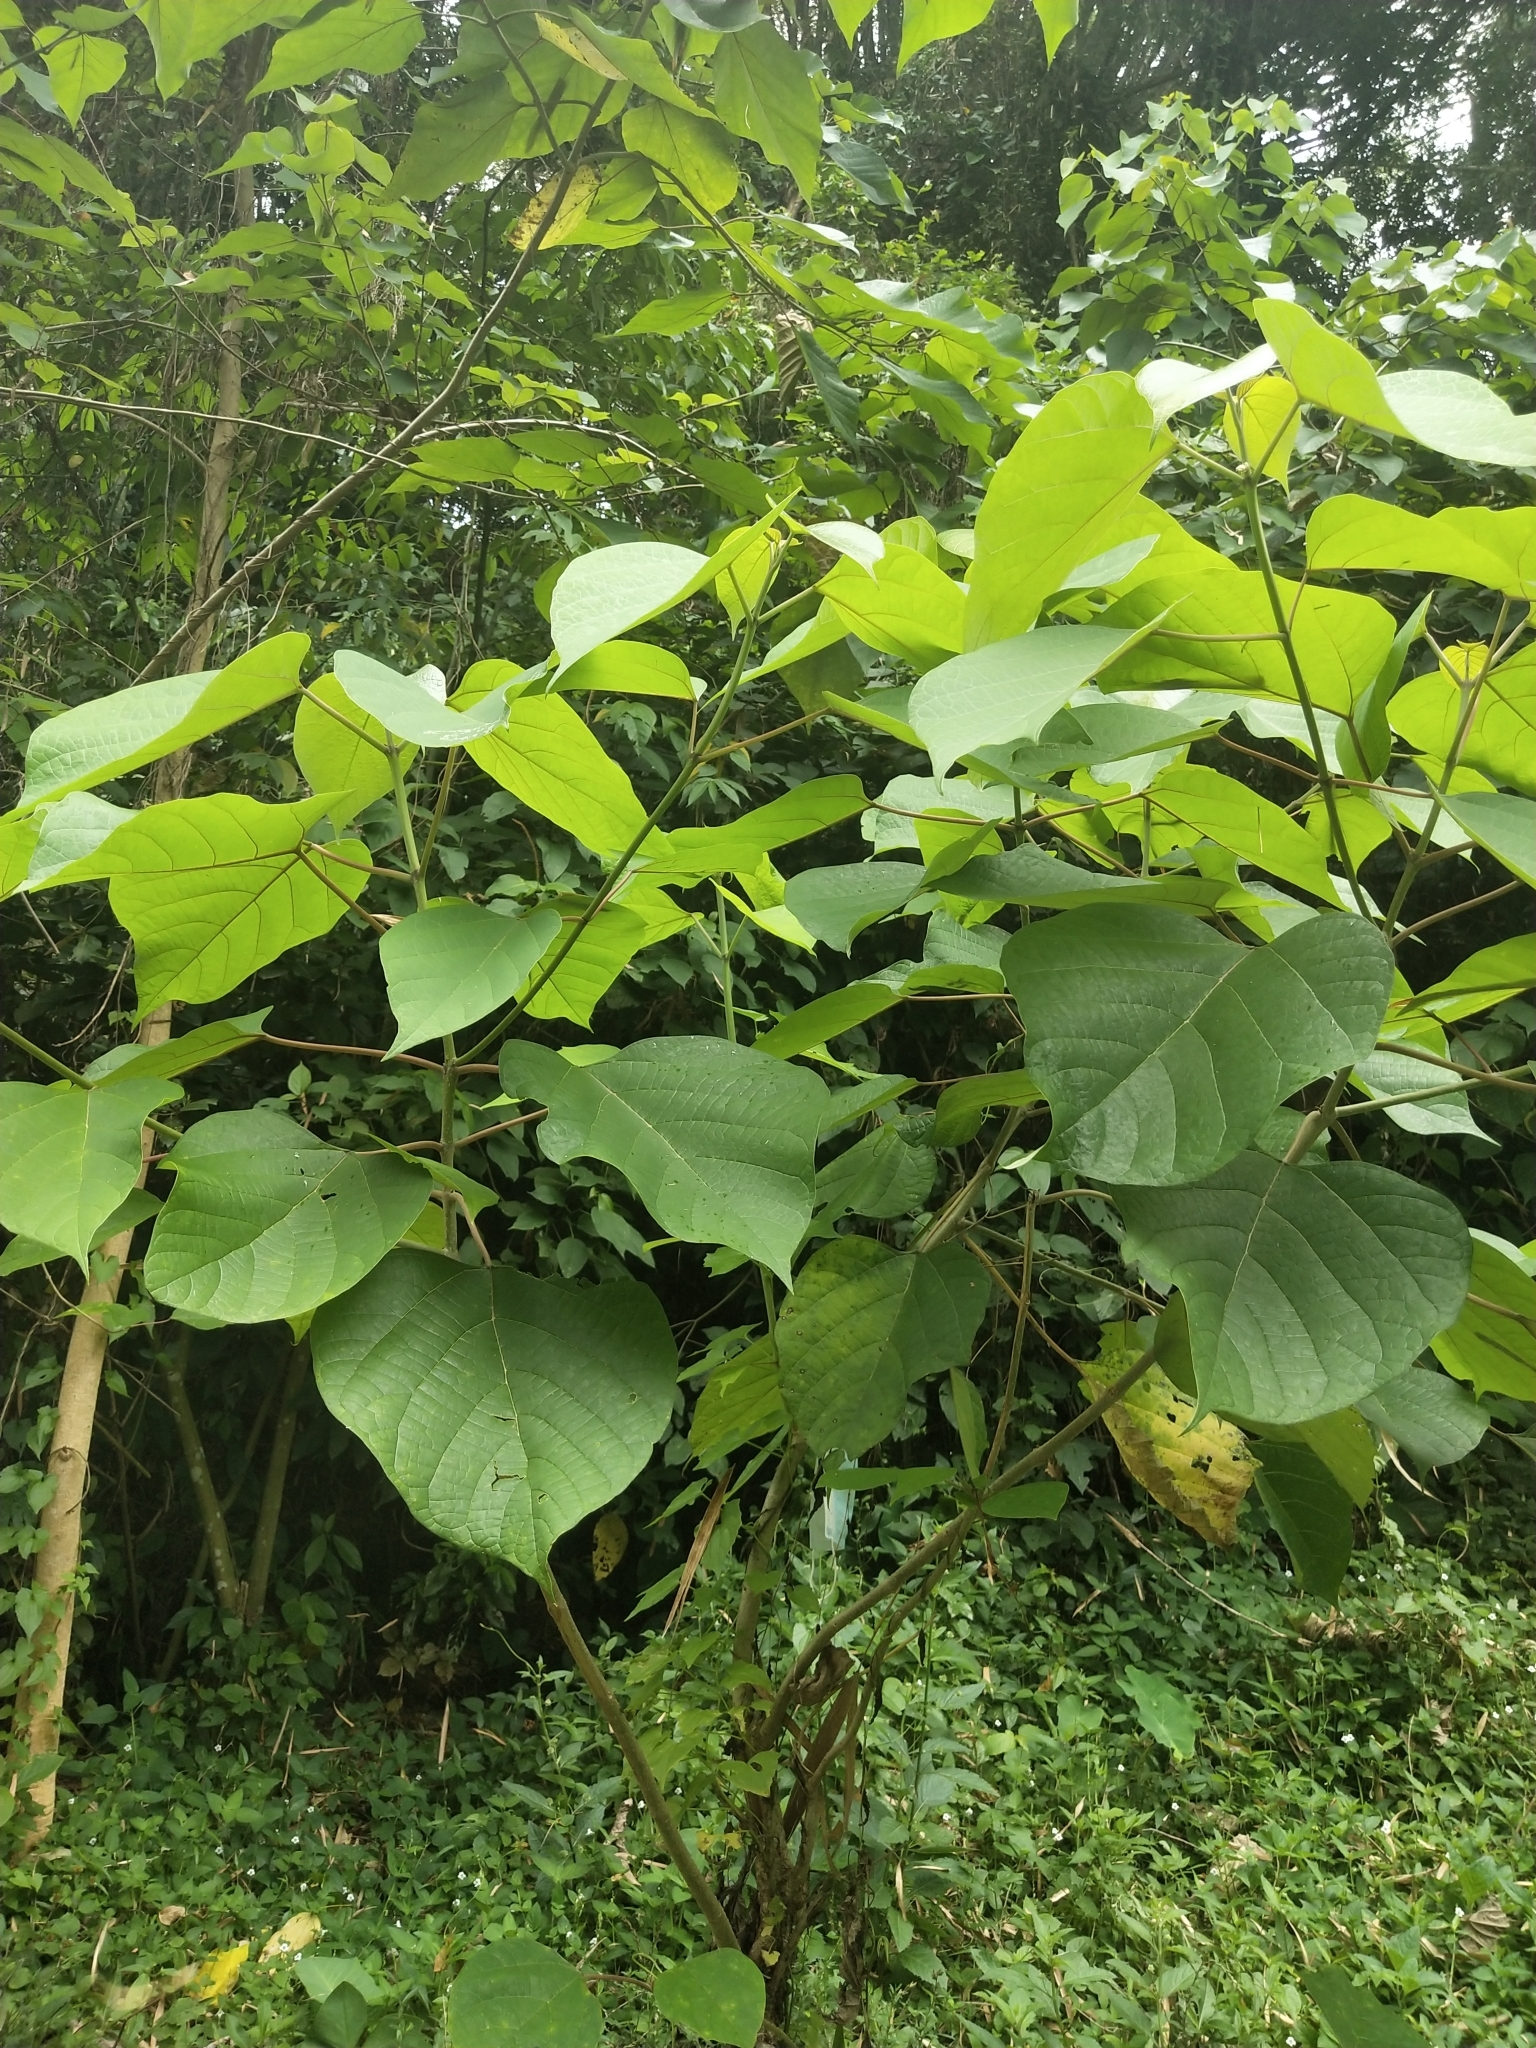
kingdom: Plantae
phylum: Tracheophyta
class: Magnoliopsida
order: Lamiales
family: Lamiaceae
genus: Gmelina
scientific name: Gmelina arborea
